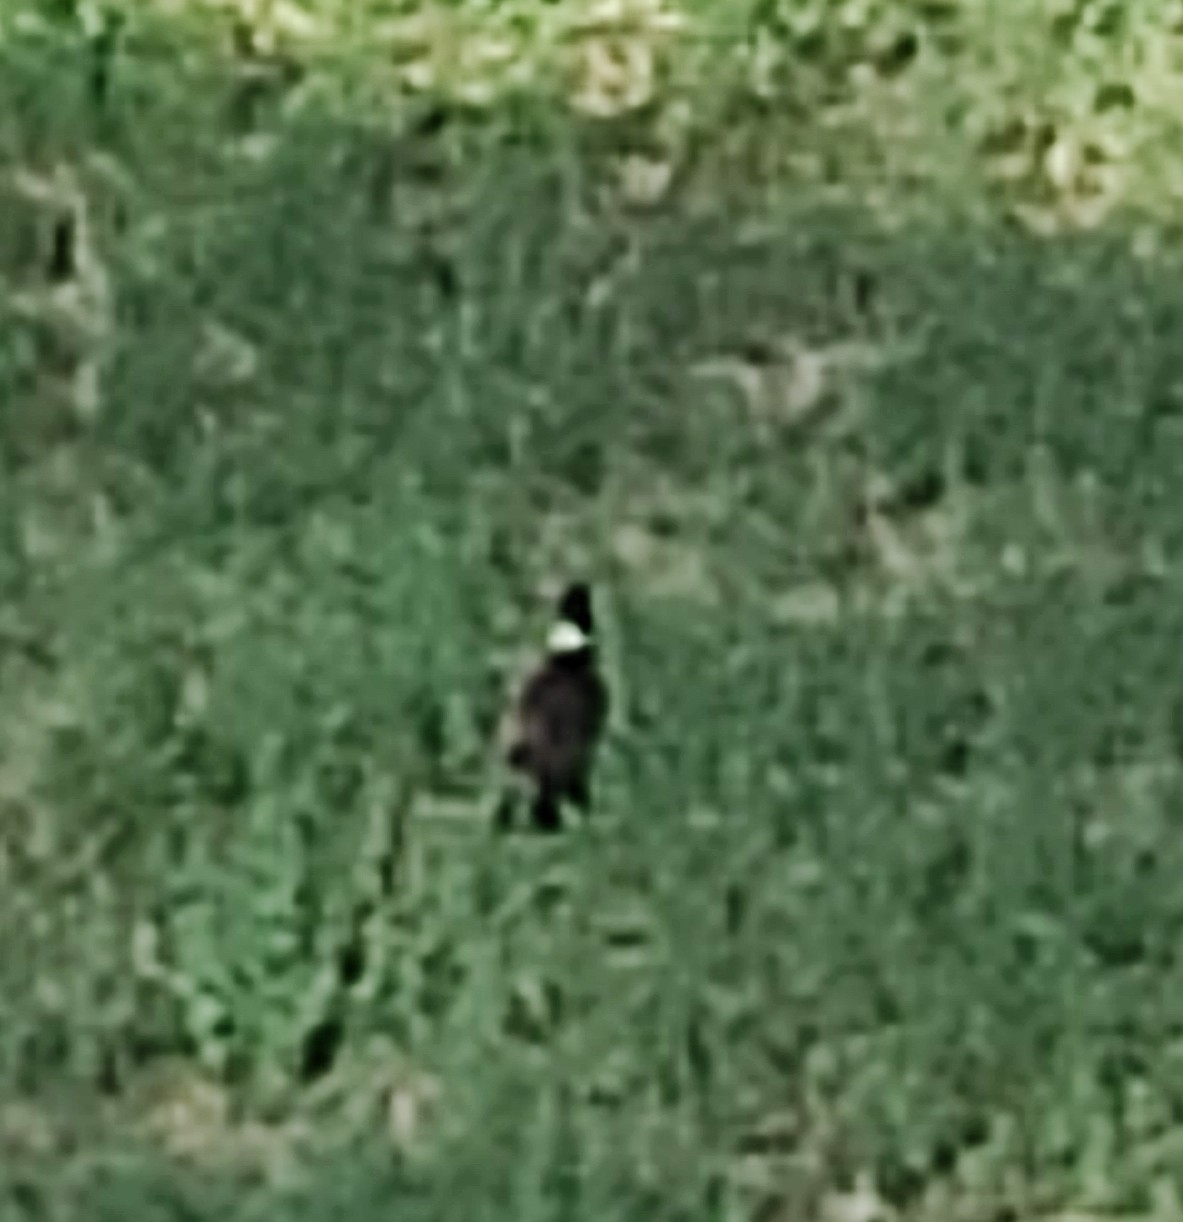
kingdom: Animalia
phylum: Chordata
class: Aves
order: Galliformes
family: Phasianidae
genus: Phasianus
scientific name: Phasianus colchicus
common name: Common pheasant
